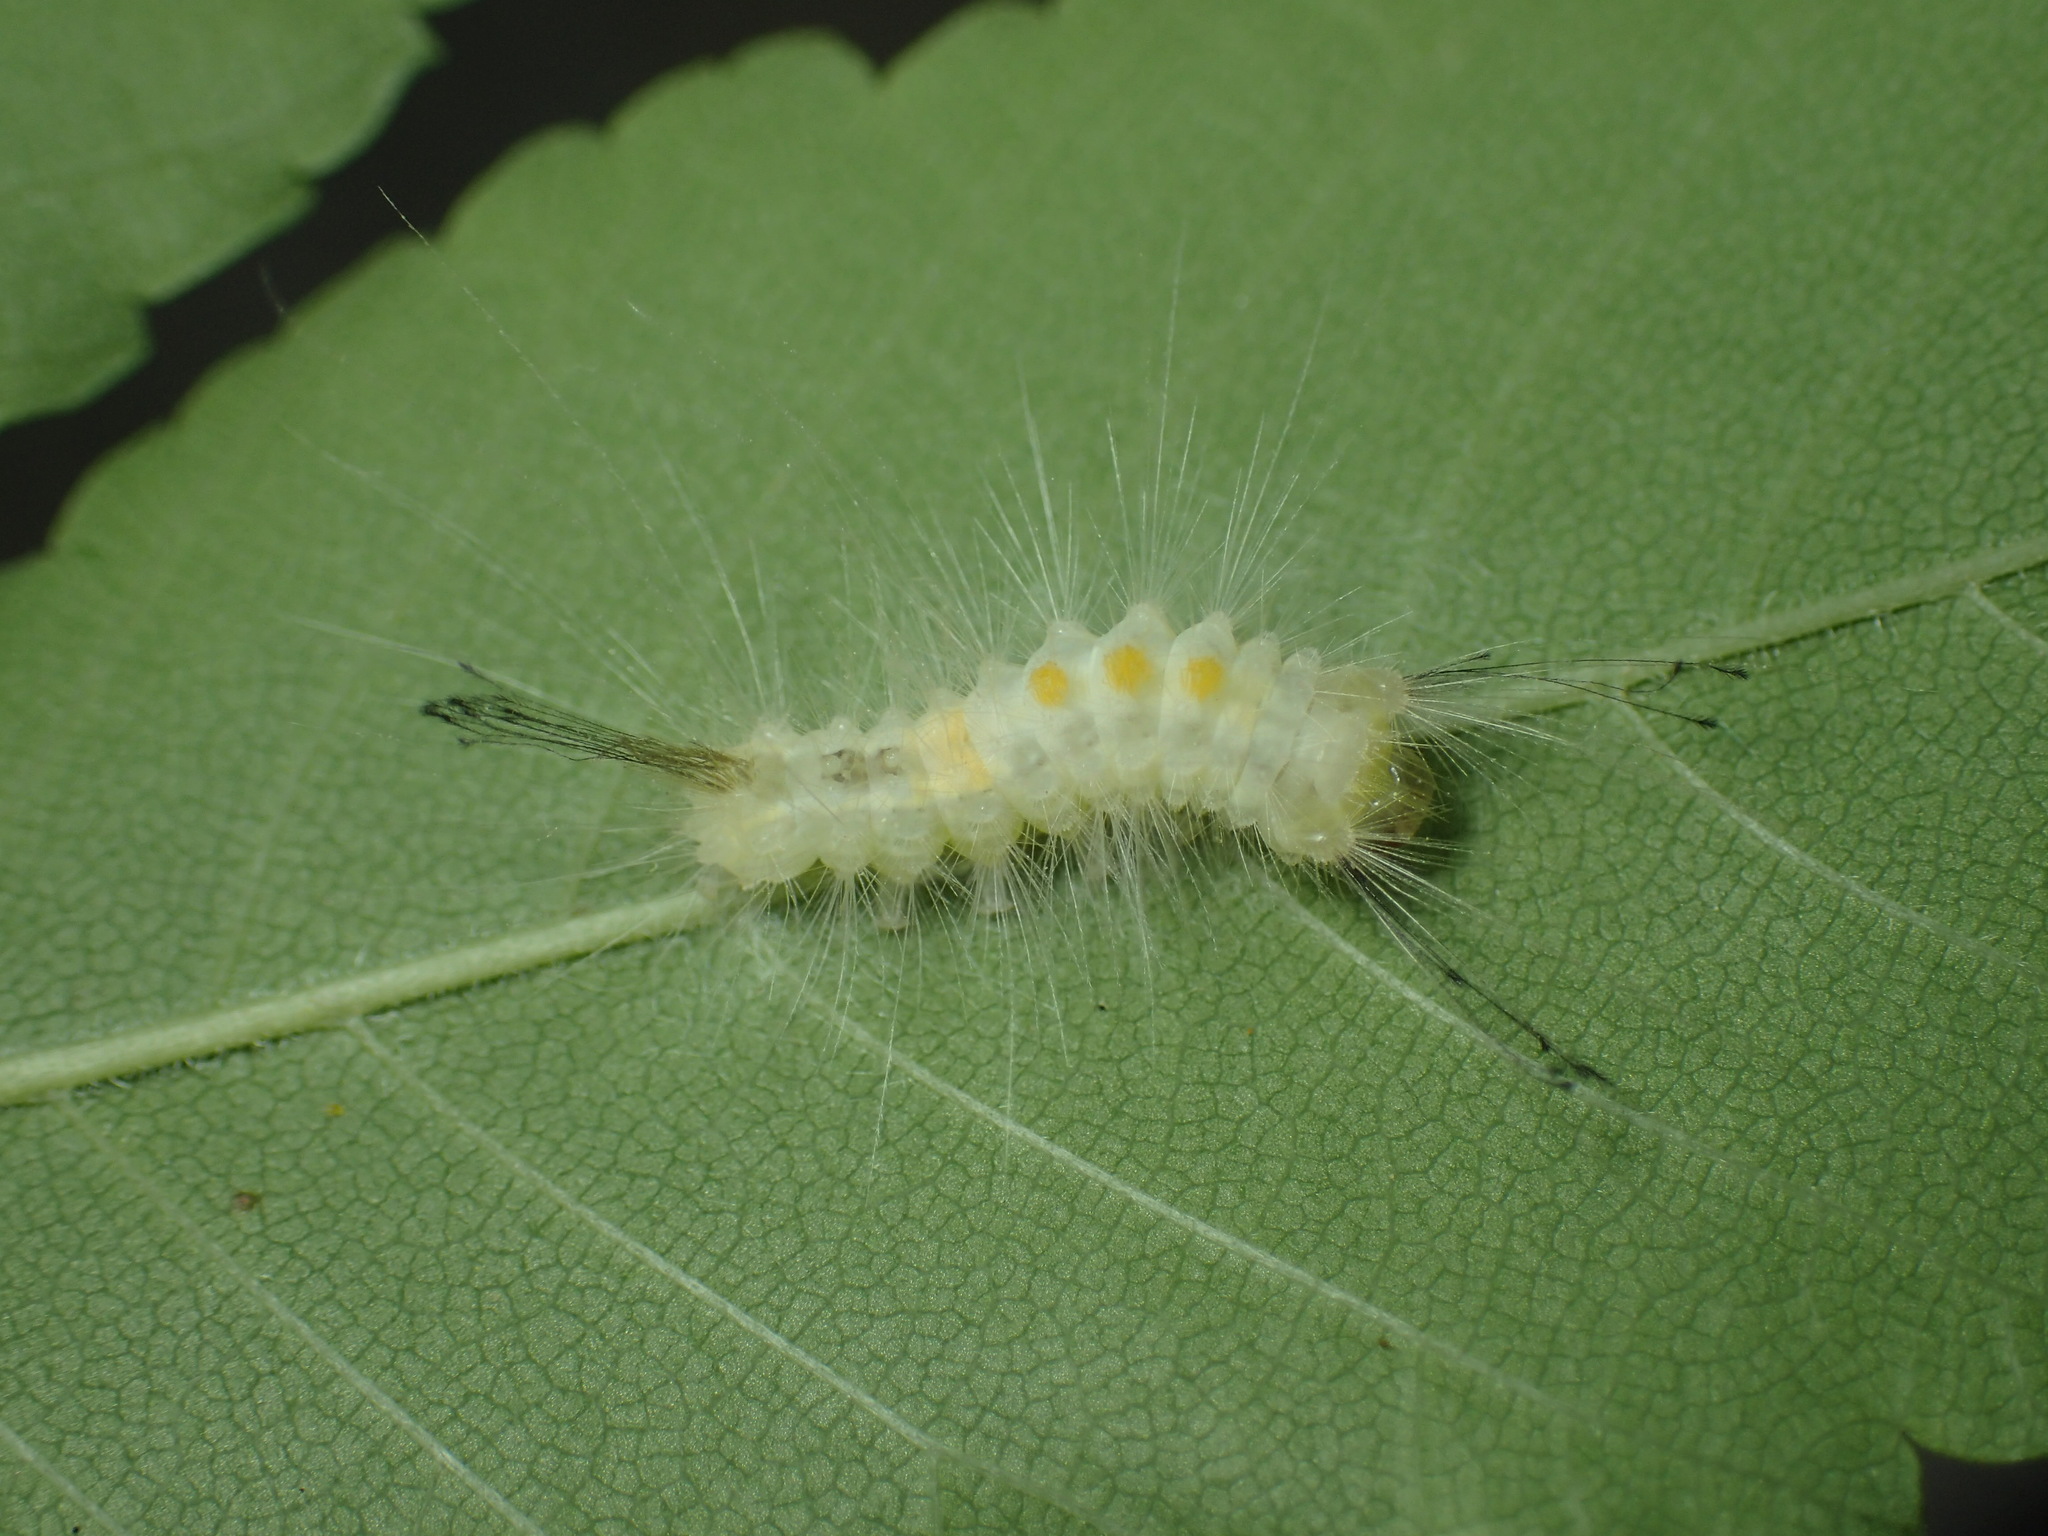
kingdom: Animalia
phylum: Arthropoda
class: Insecta
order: Lepidoptera
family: Erebidae
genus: Orgyia
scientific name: Orgyia definita
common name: Definite tussock moth
